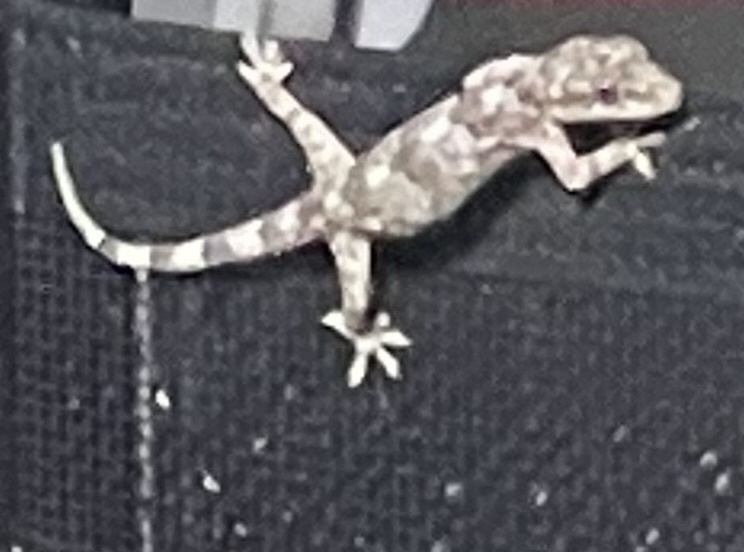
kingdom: Animalia
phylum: Chordata
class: Squamata
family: Gekkonidae
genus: Hemidactylus
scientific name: Hemidactylus mabouia
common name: House gecko
